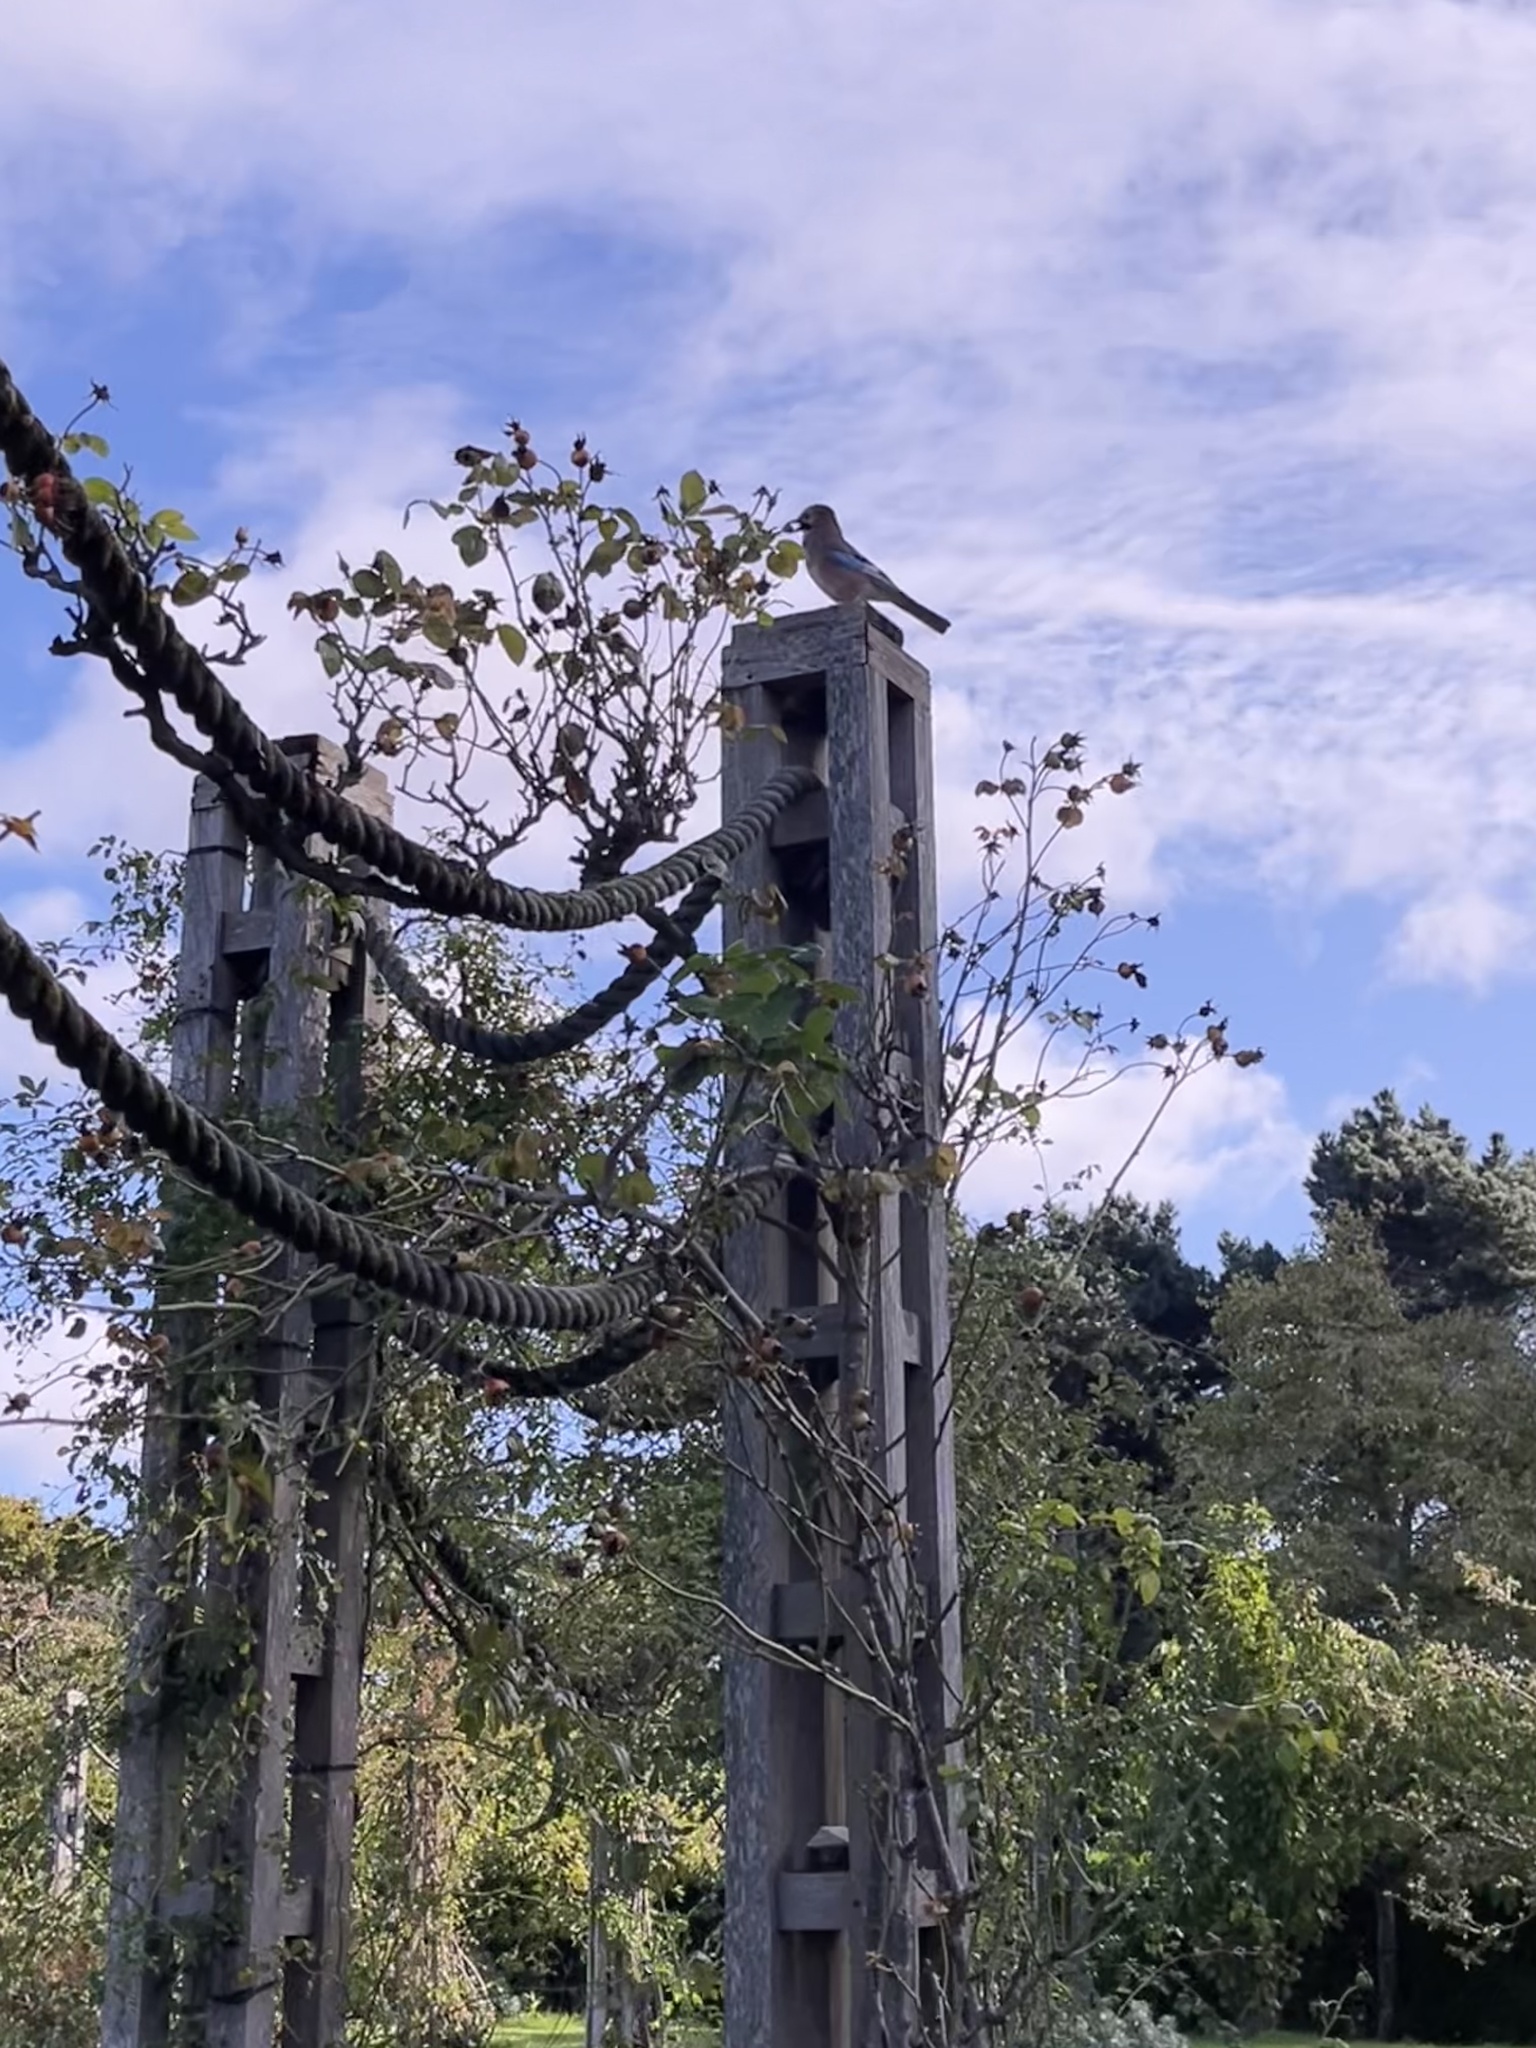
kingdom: Animalia
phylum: Chordata
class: Aves
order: Passeriformes
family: Corvidae
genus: Garrulus
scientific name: Garrulus glandarius
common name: Eurasian jay
